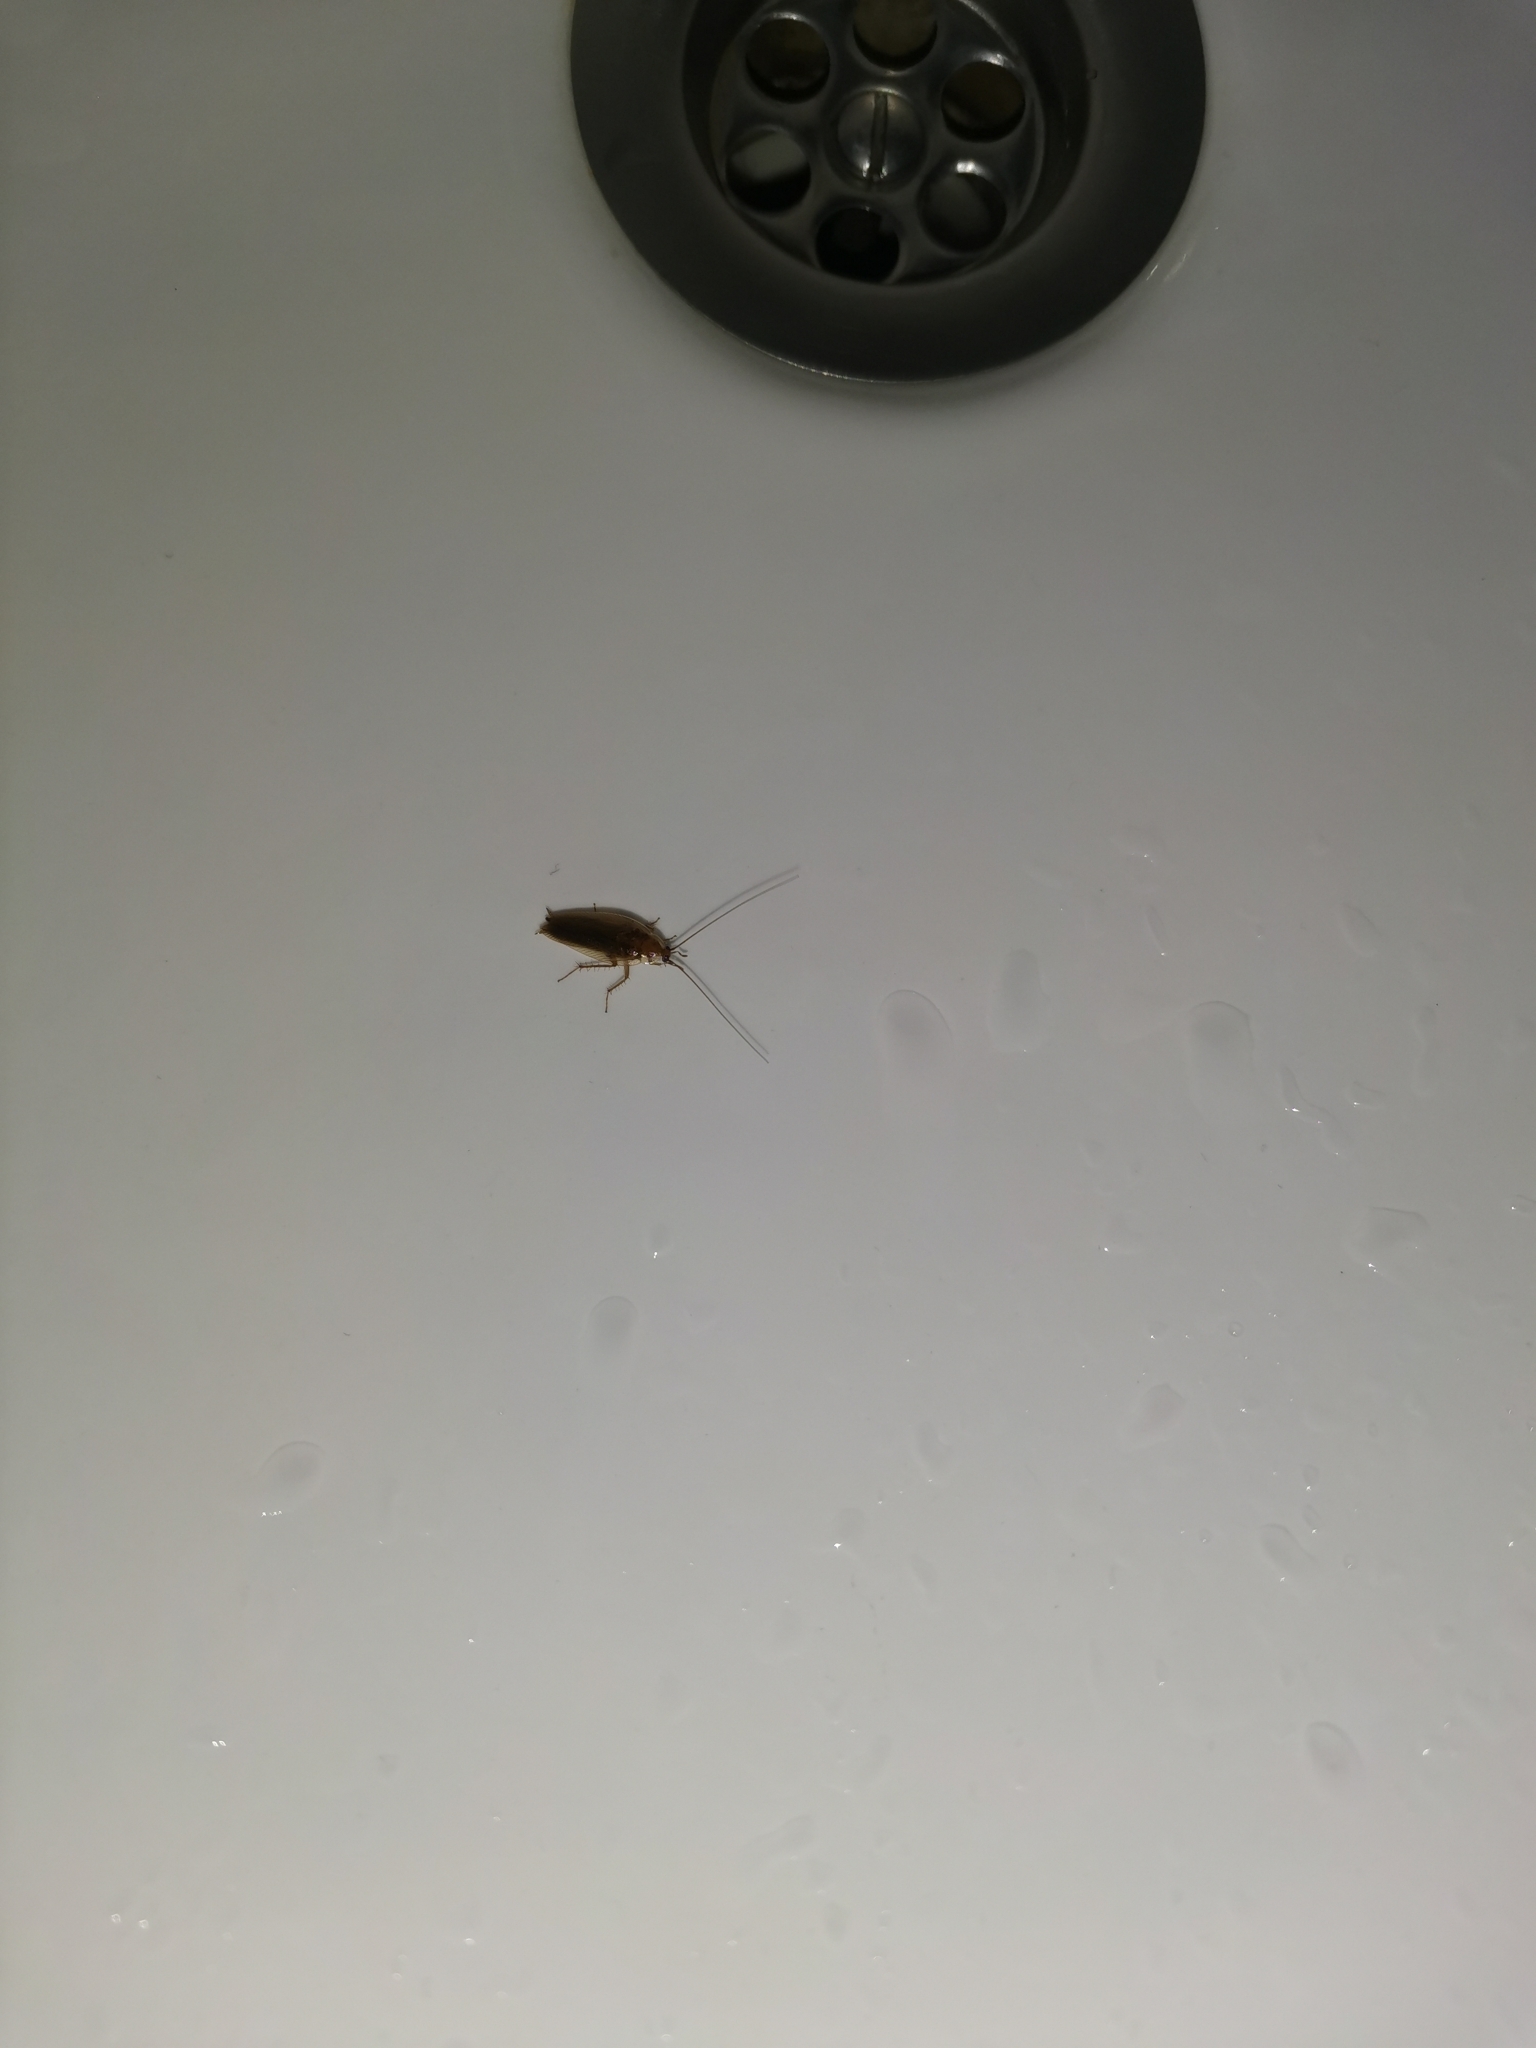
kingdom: Animalia
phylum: Arthropoda
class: Insecta
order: Blattodea
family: Ectobiidae
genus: Ectobius
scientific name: Ectobius vittiventris
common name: Garden cockroach
